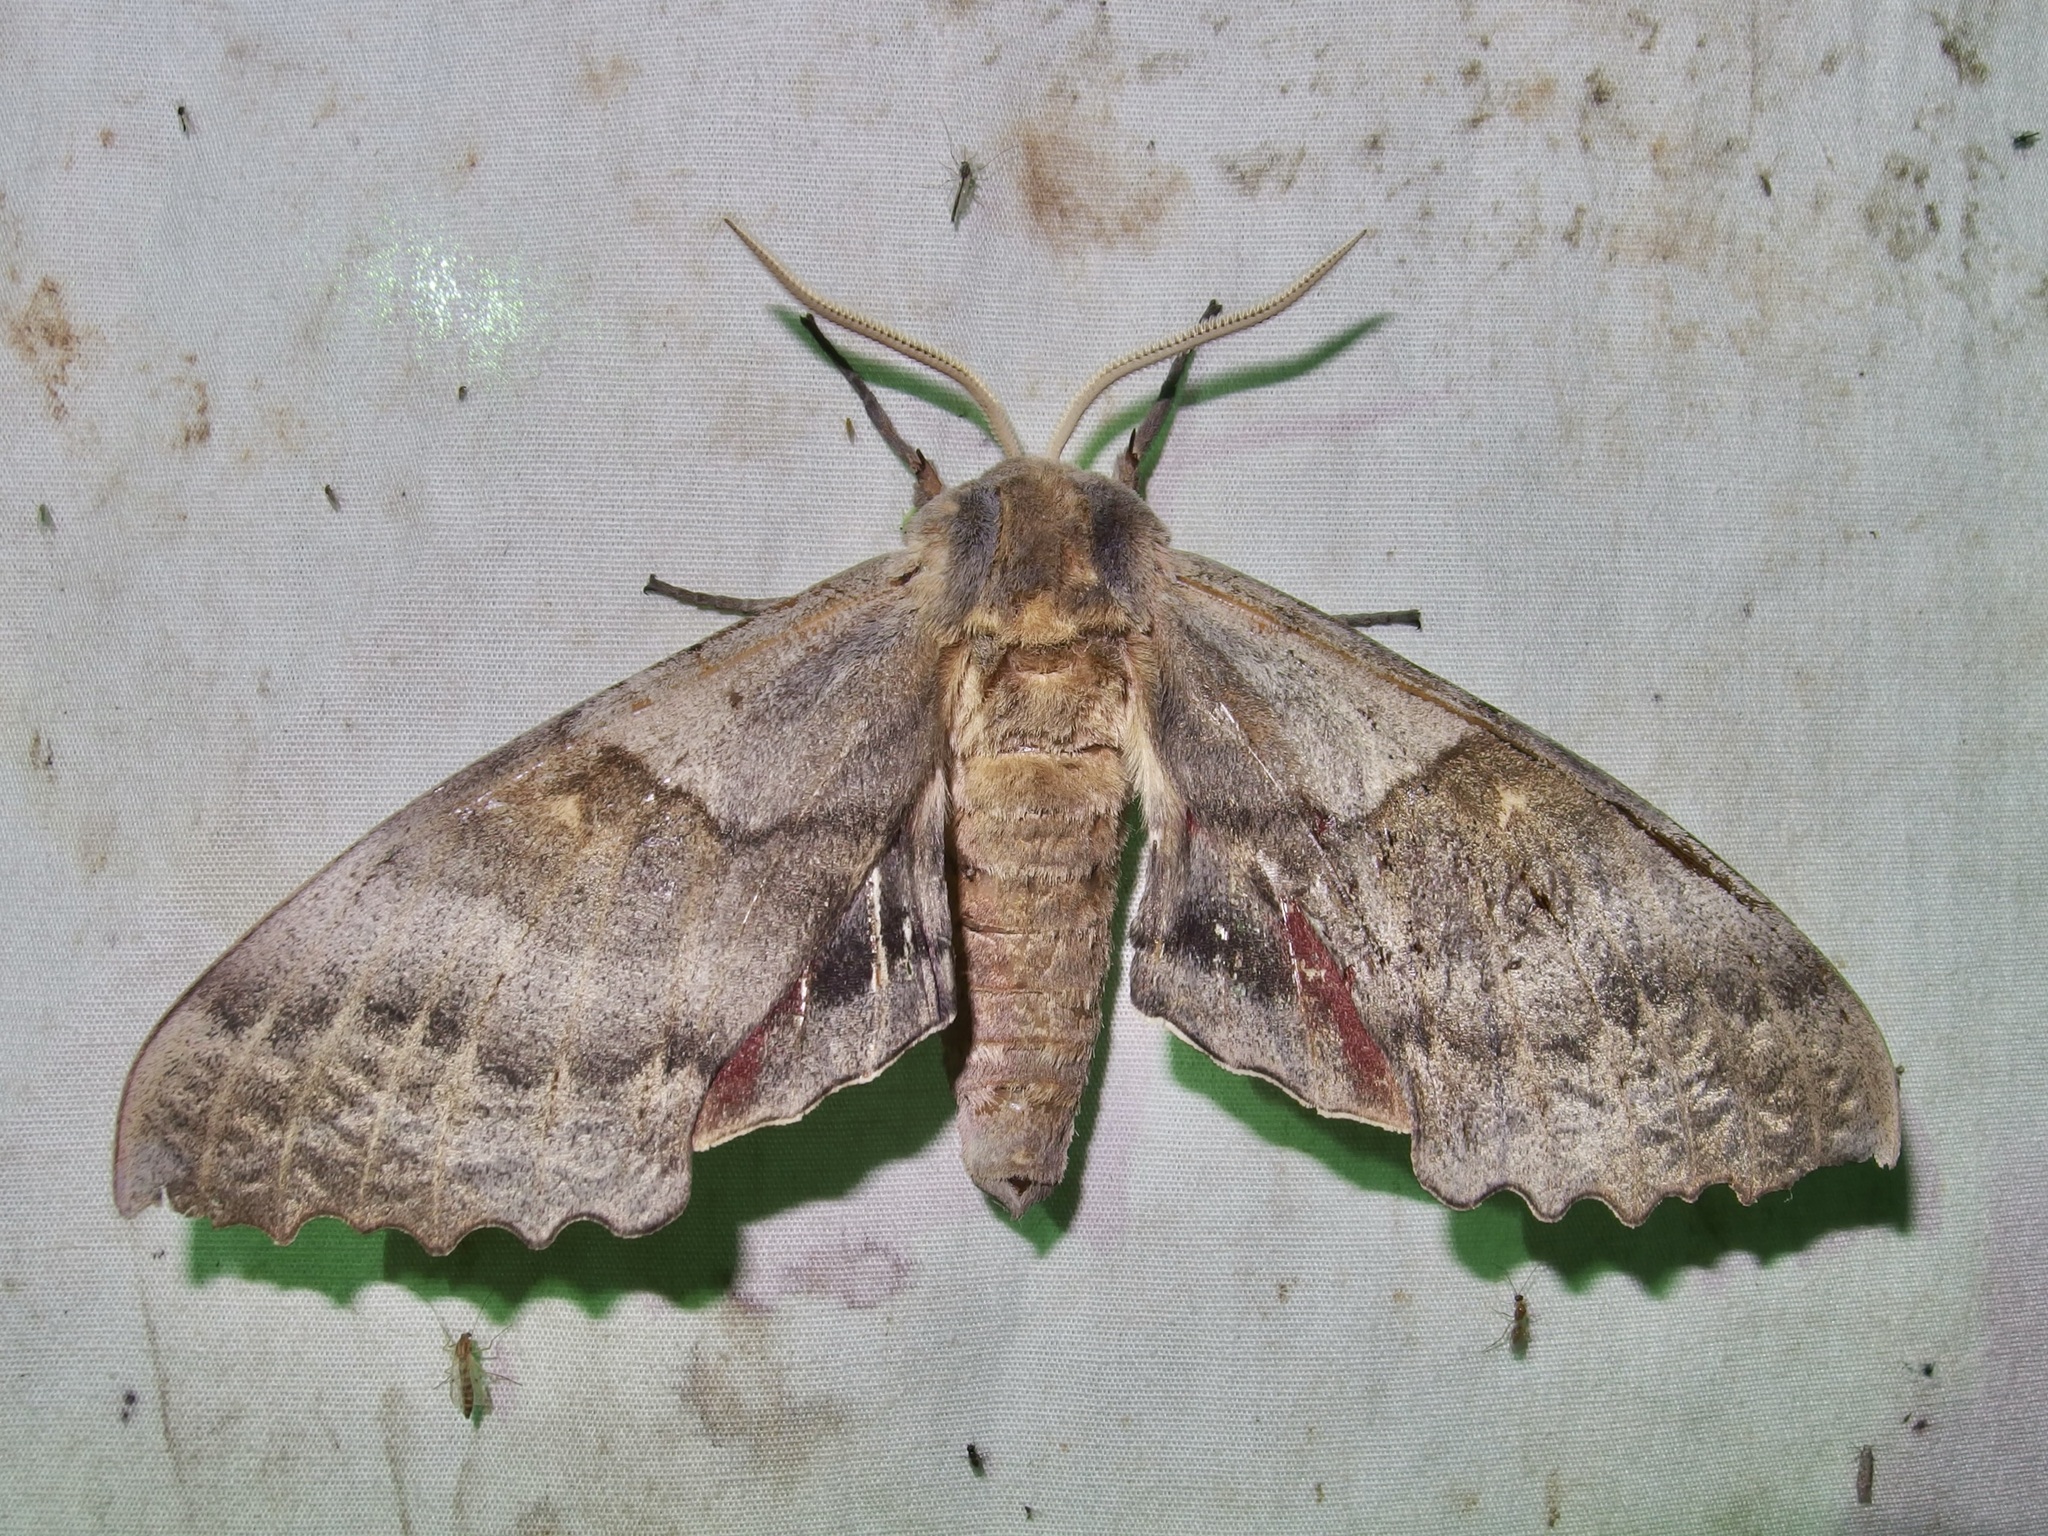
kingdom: Animalia
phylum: Arthropoda
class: Insecta
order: Lepidoptera
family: Sphingidae
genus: Pachysphinx
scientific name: Pachysphinx occidentalis
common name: Western poplar sphinx
